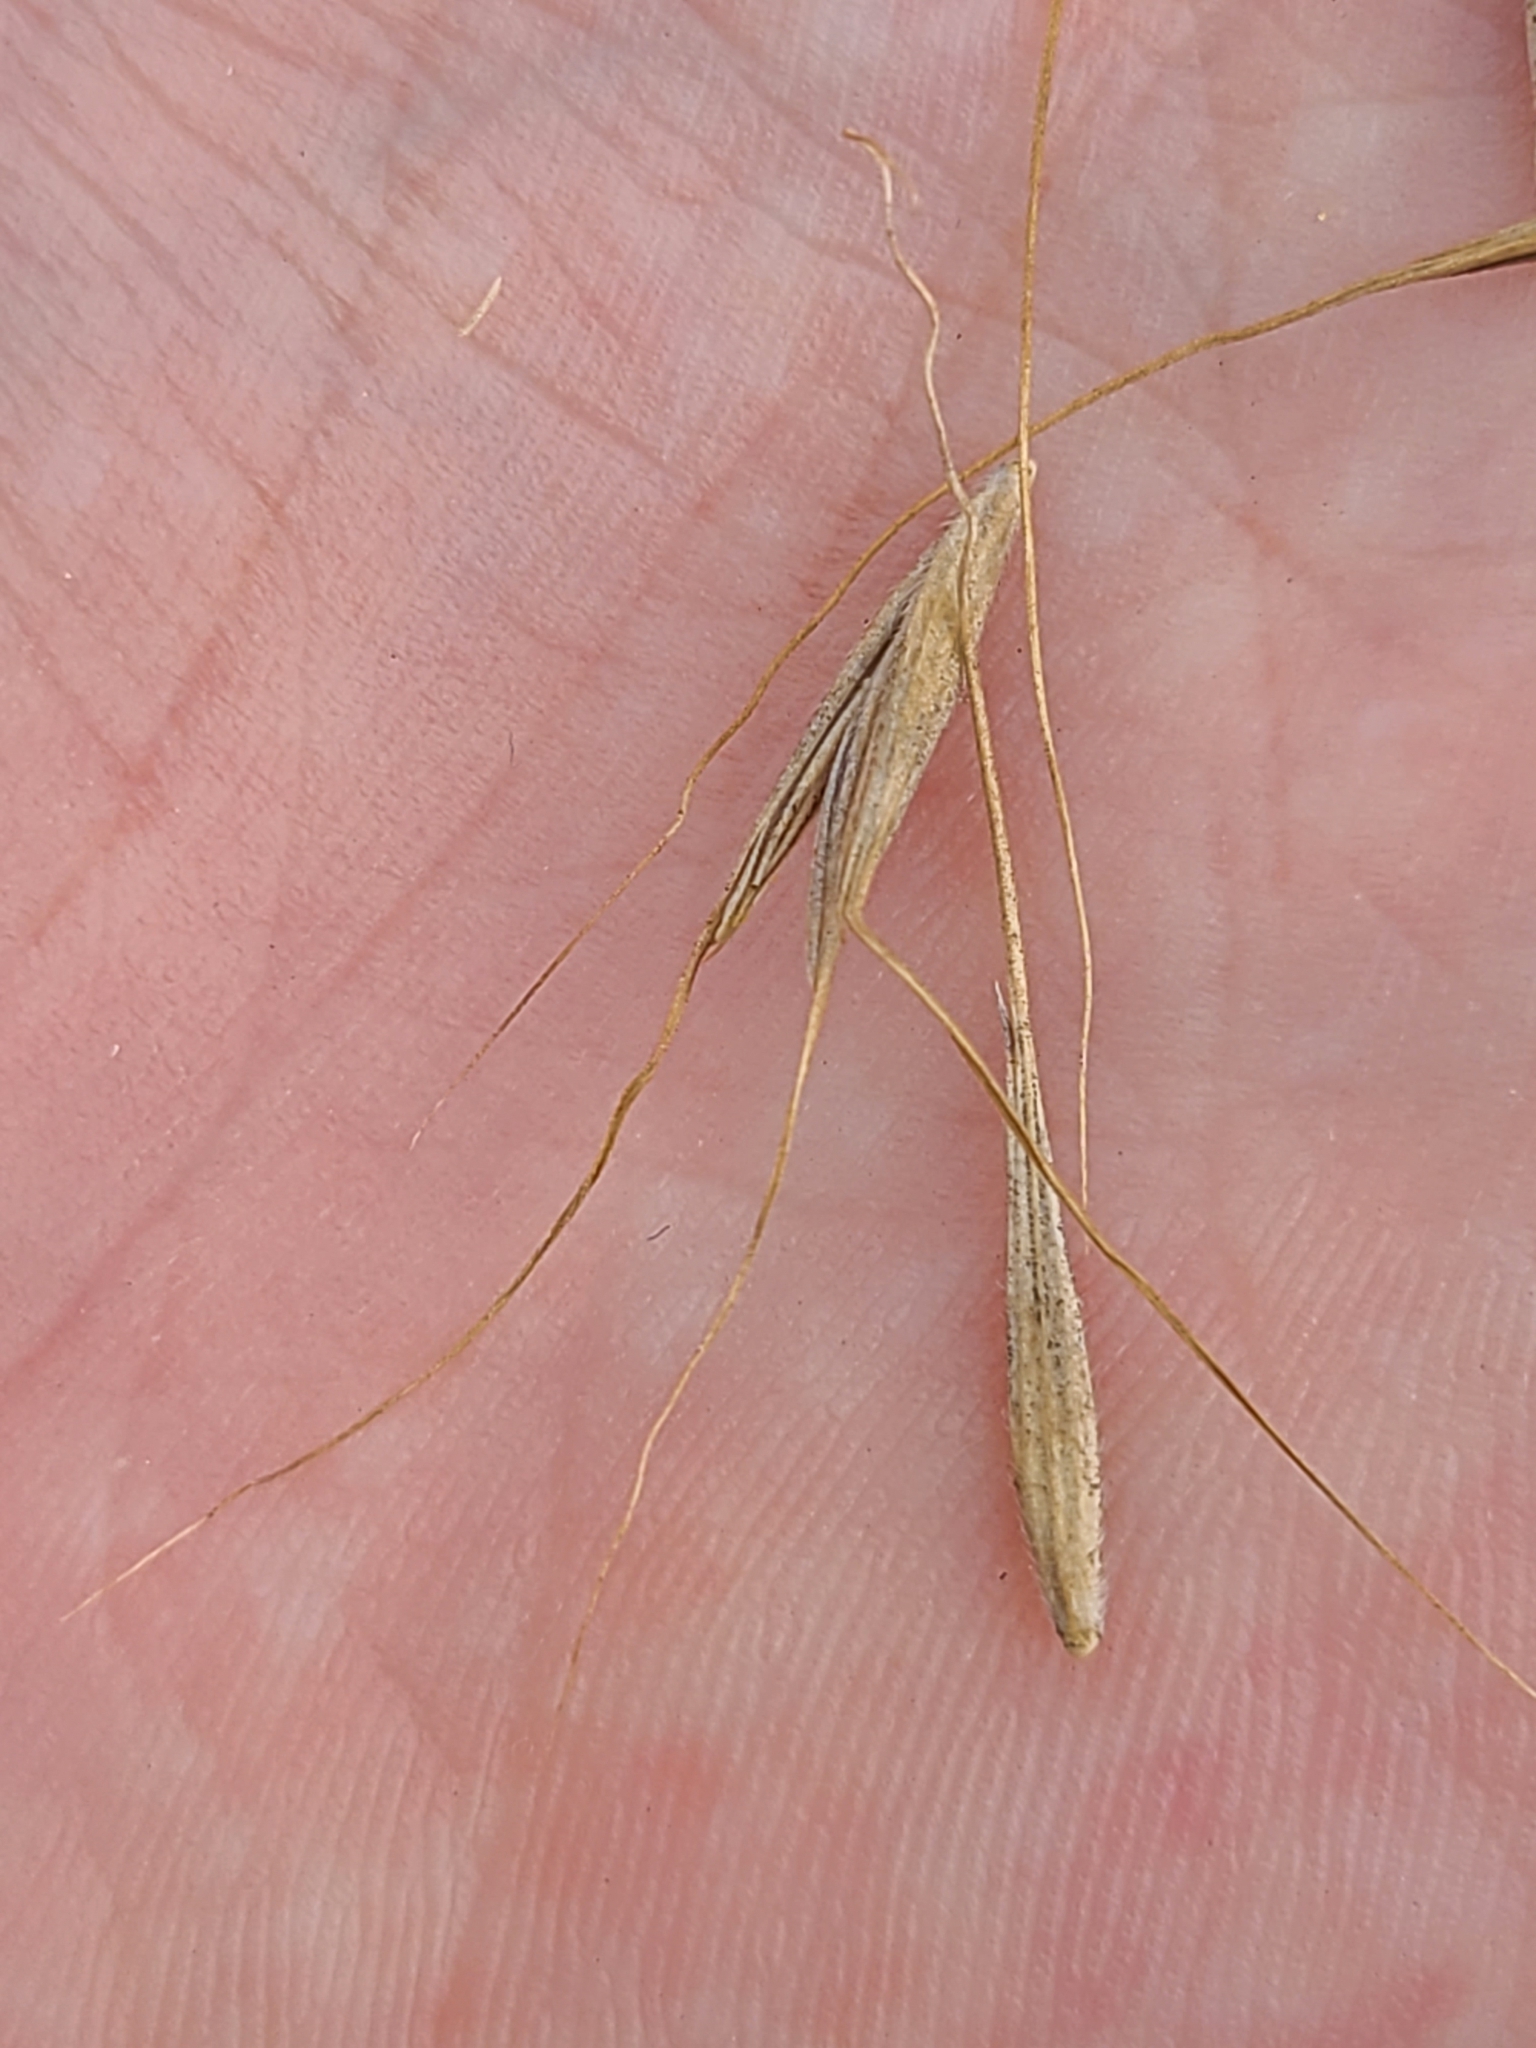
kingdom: Plantae
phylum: Tracheophyta
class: Liliopsida
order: Poales
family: Poaceae
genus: Elymus
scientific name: Elymus canadensis
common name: Canada wild rye
